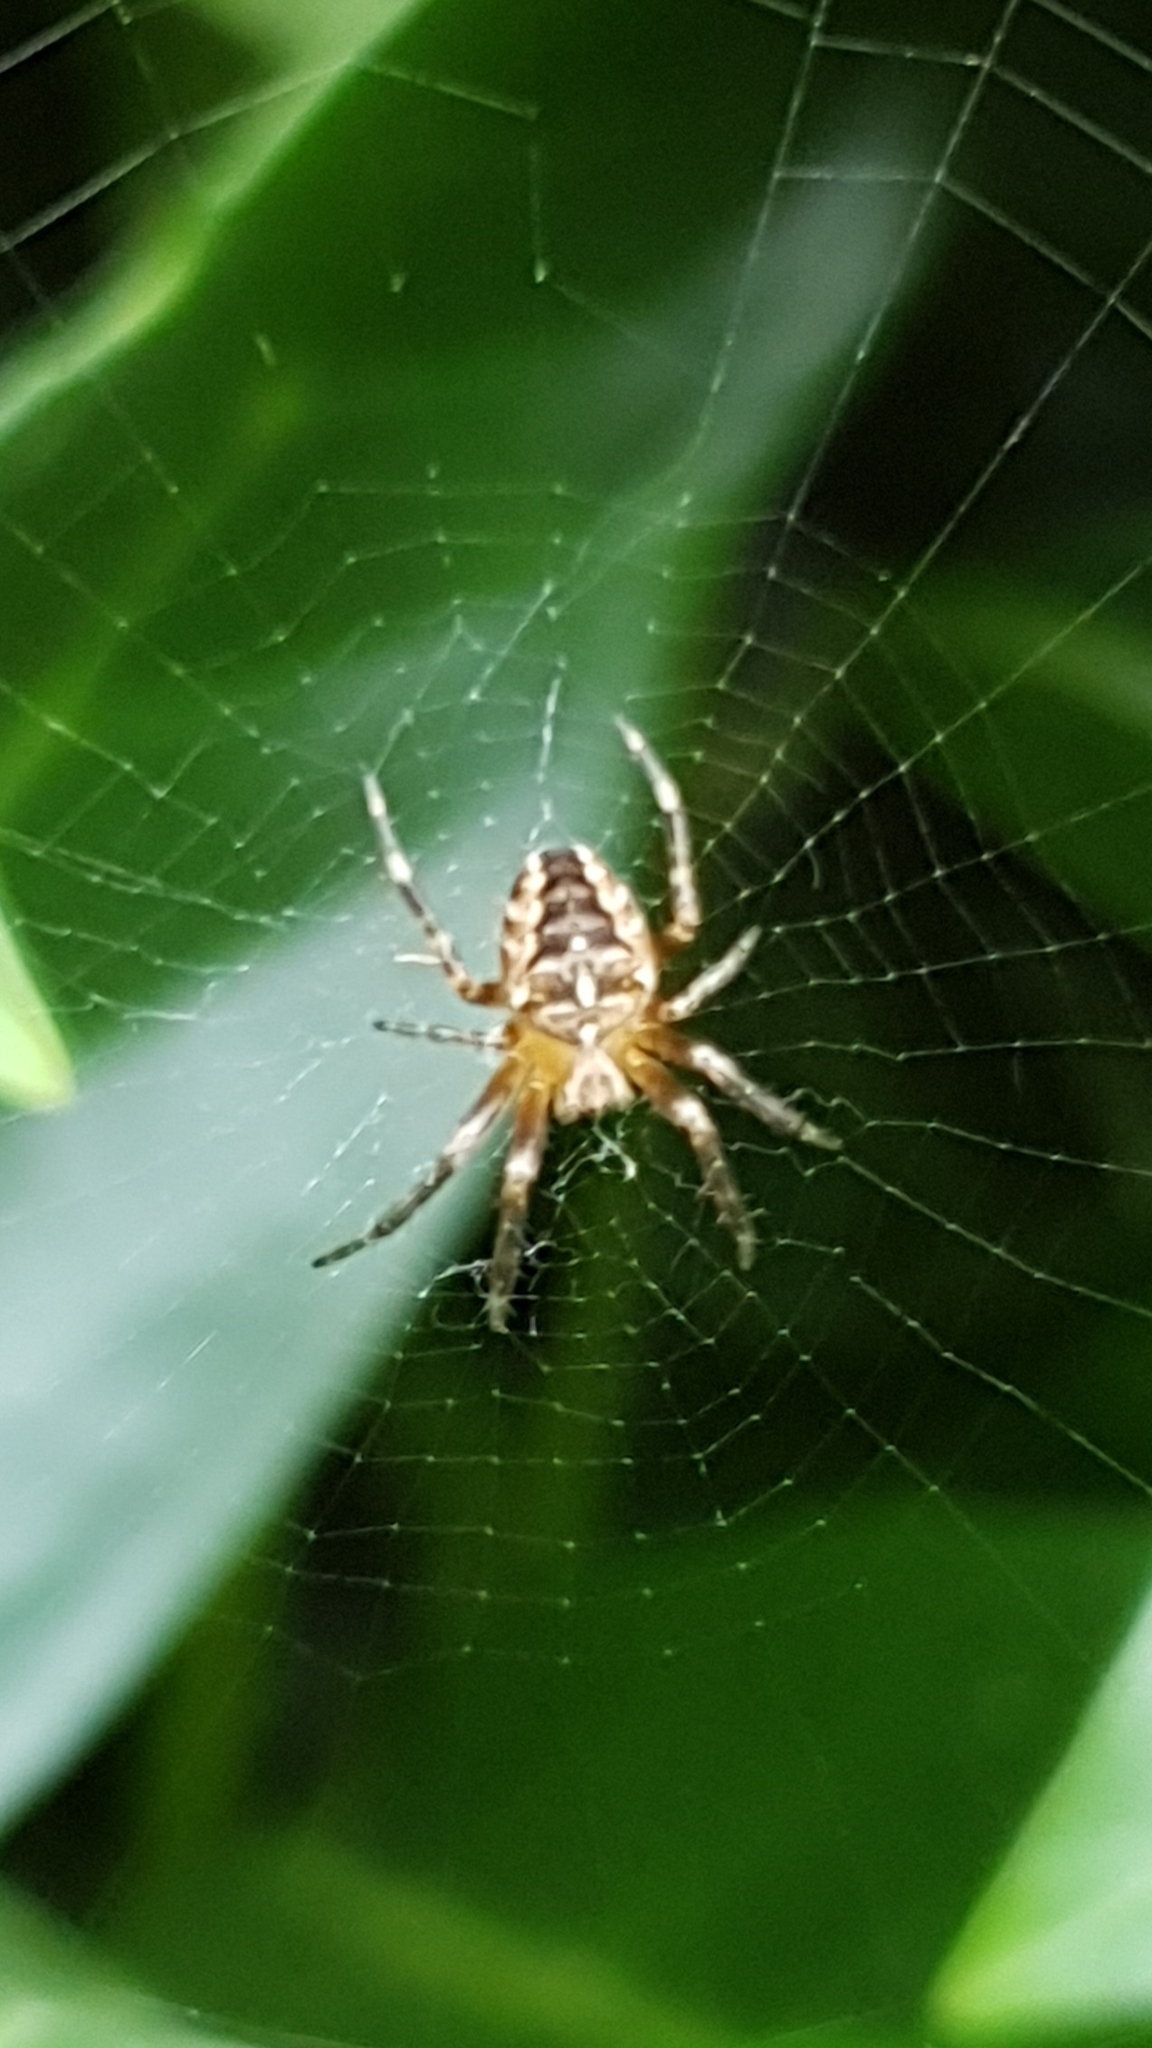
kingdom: Animalia
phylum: Arthropoda
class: Arachnida
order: Araneae
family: Araneidae
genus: Araneus
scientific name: Araneus diadematus
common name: Cross orbweaver
